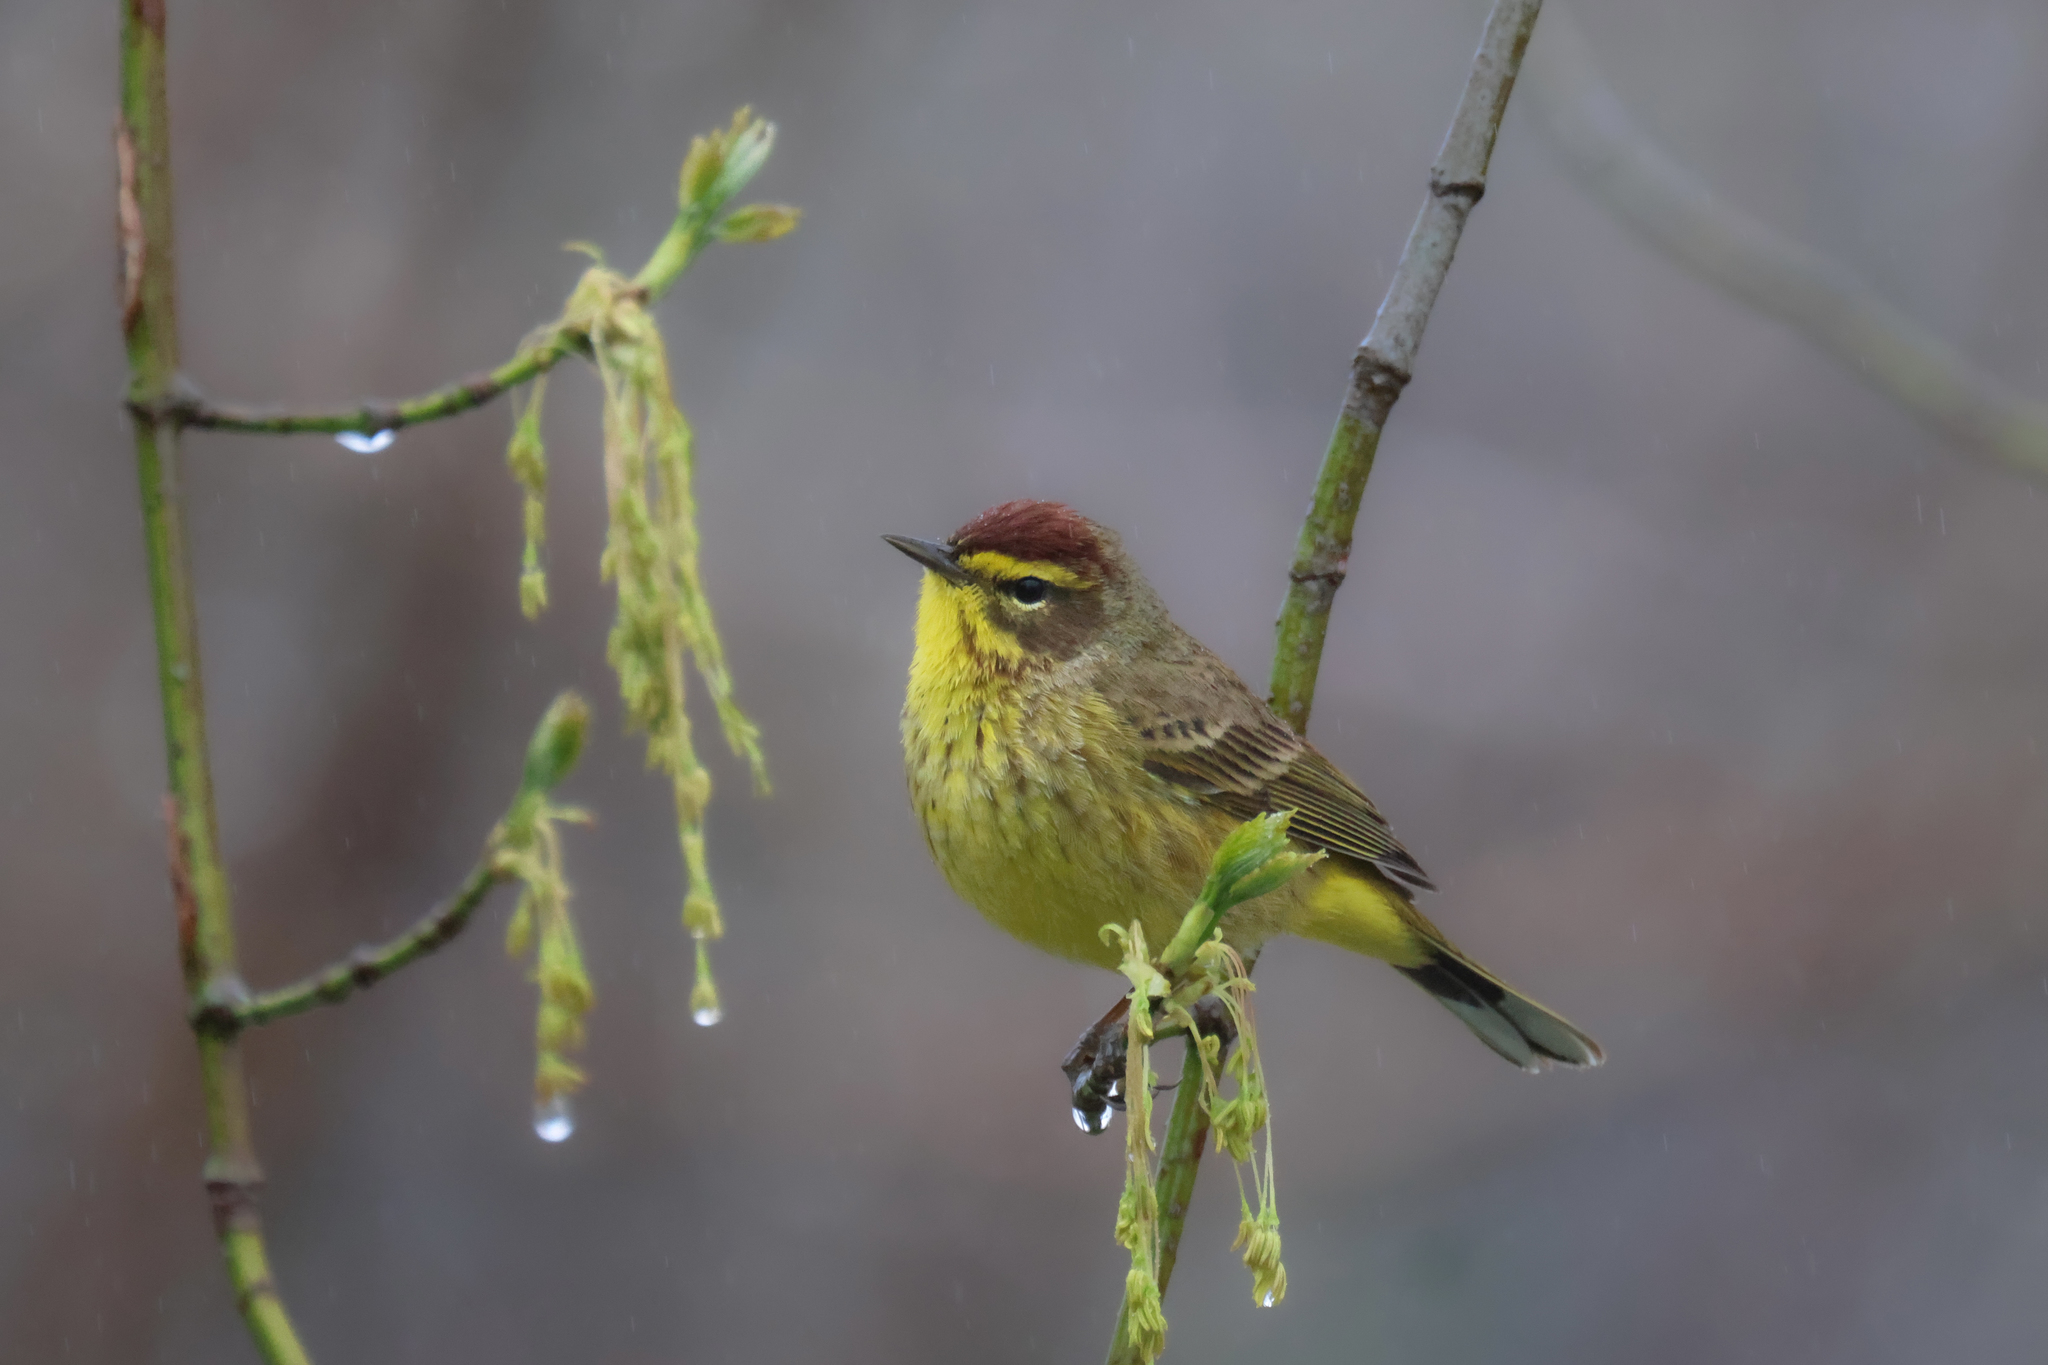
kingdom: Animalia
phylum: Chordata
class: Aves
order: Passeriformes
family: Parulidae
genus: Setophaga
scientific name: Setophaga palmarum
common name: Palm warbler
